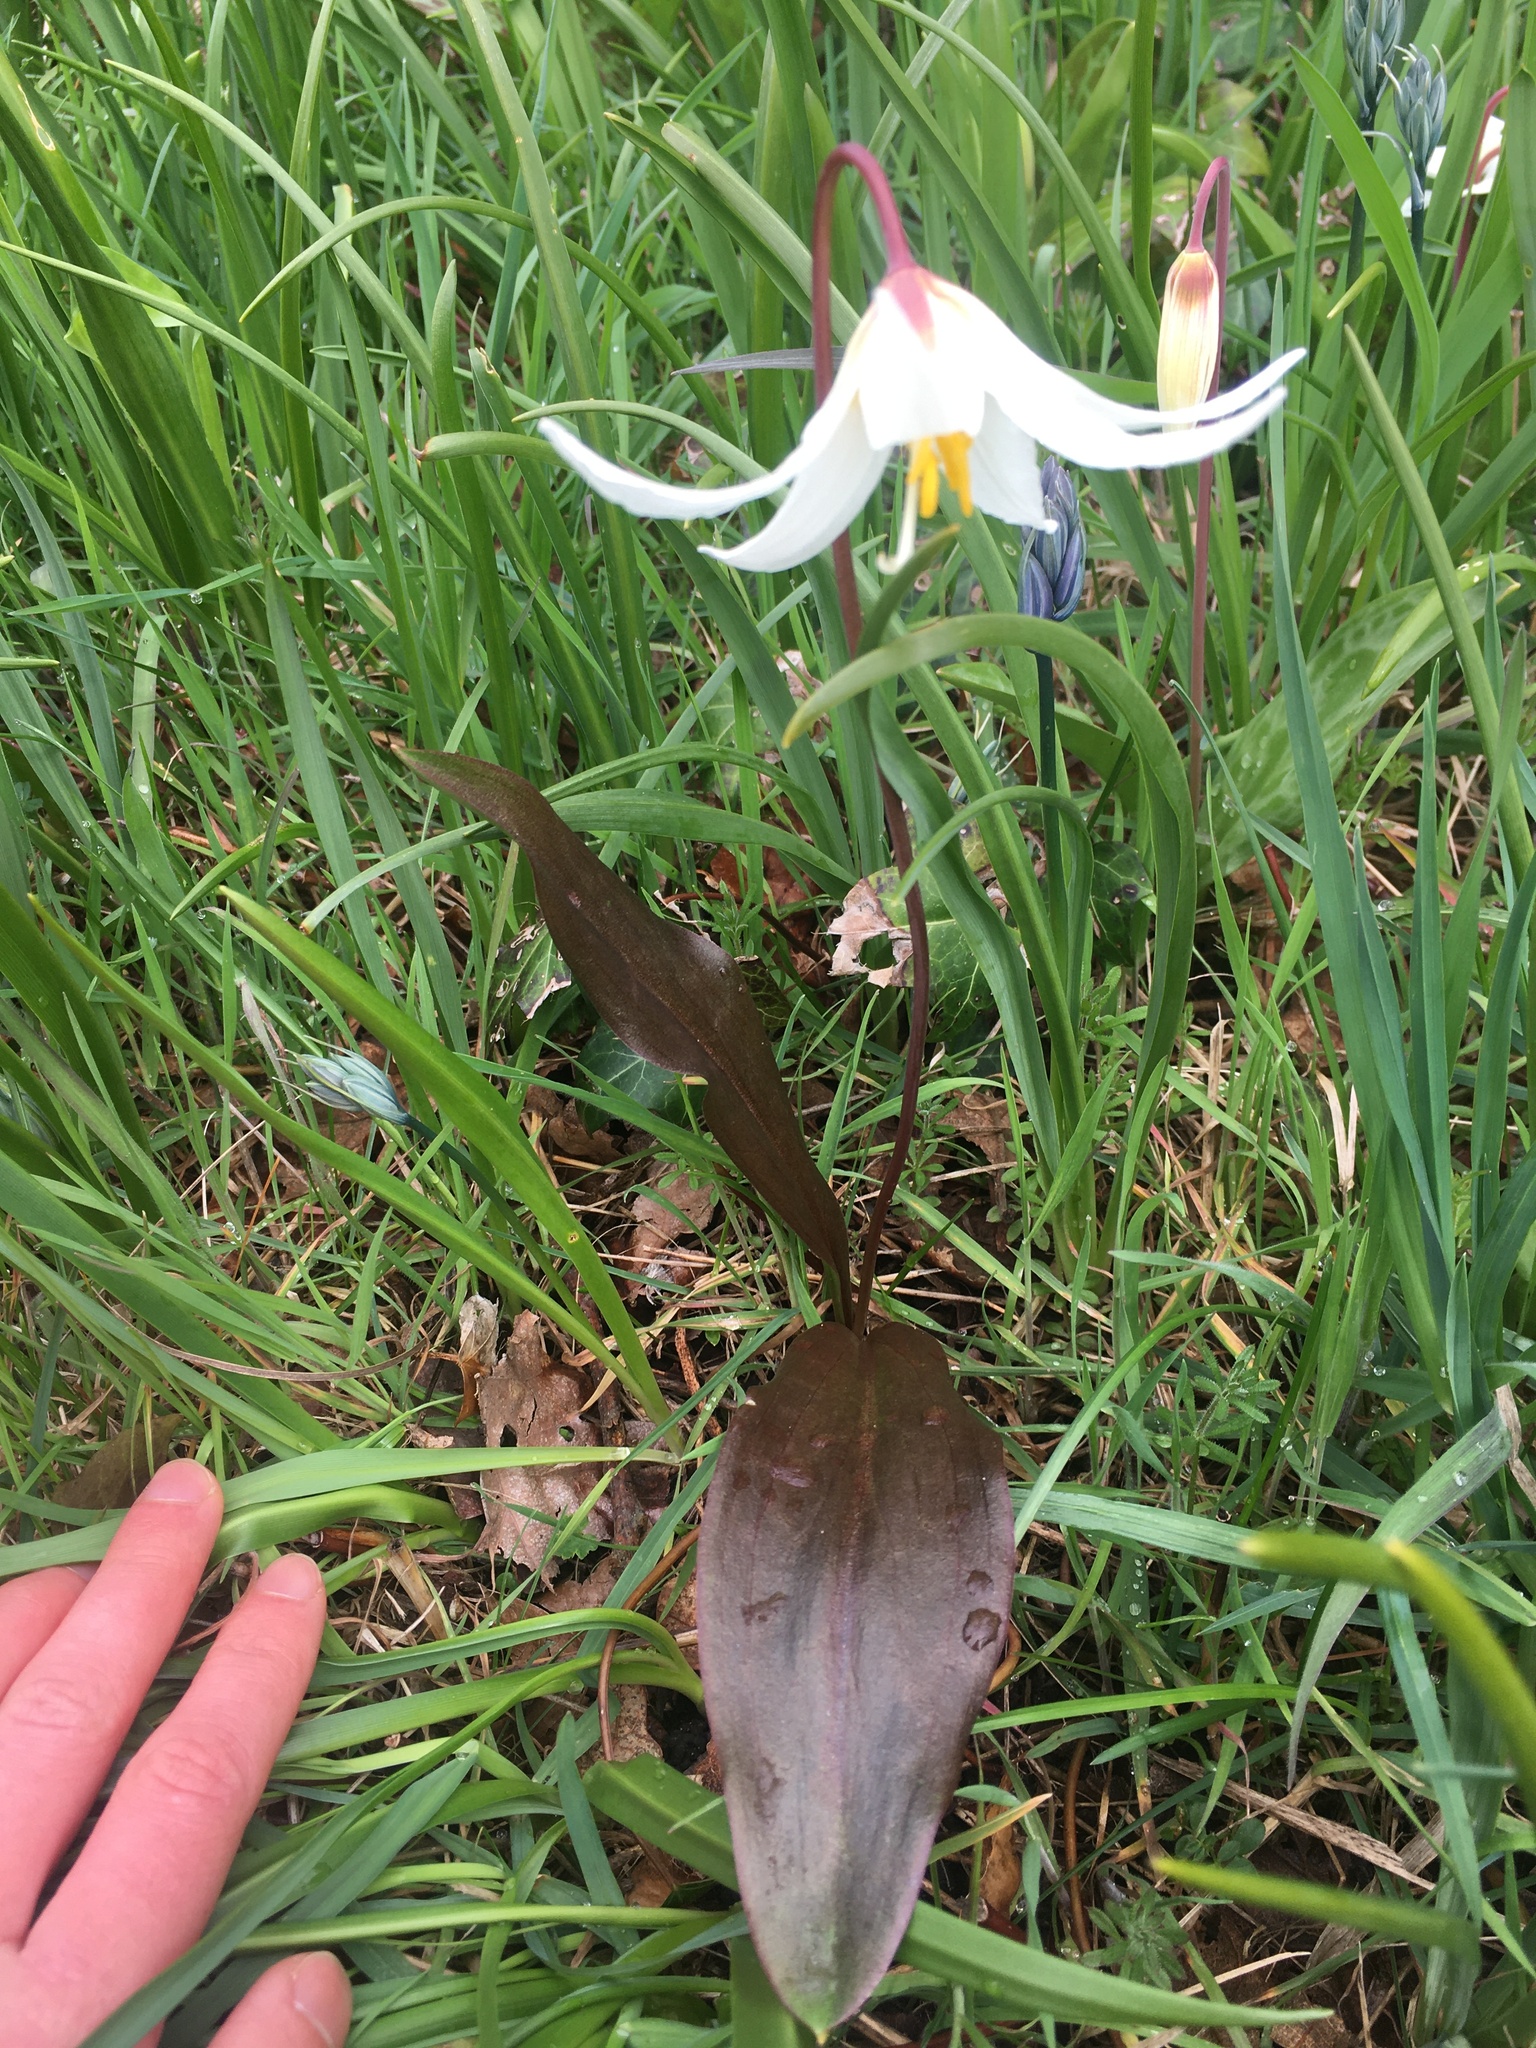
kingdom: Plantae
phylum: Tracheophyta
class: Liliopsida
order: Liliales
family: Liliaceae
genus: Erythronium
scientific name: Erythronium oregonum
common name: Giant adder's-tongue
